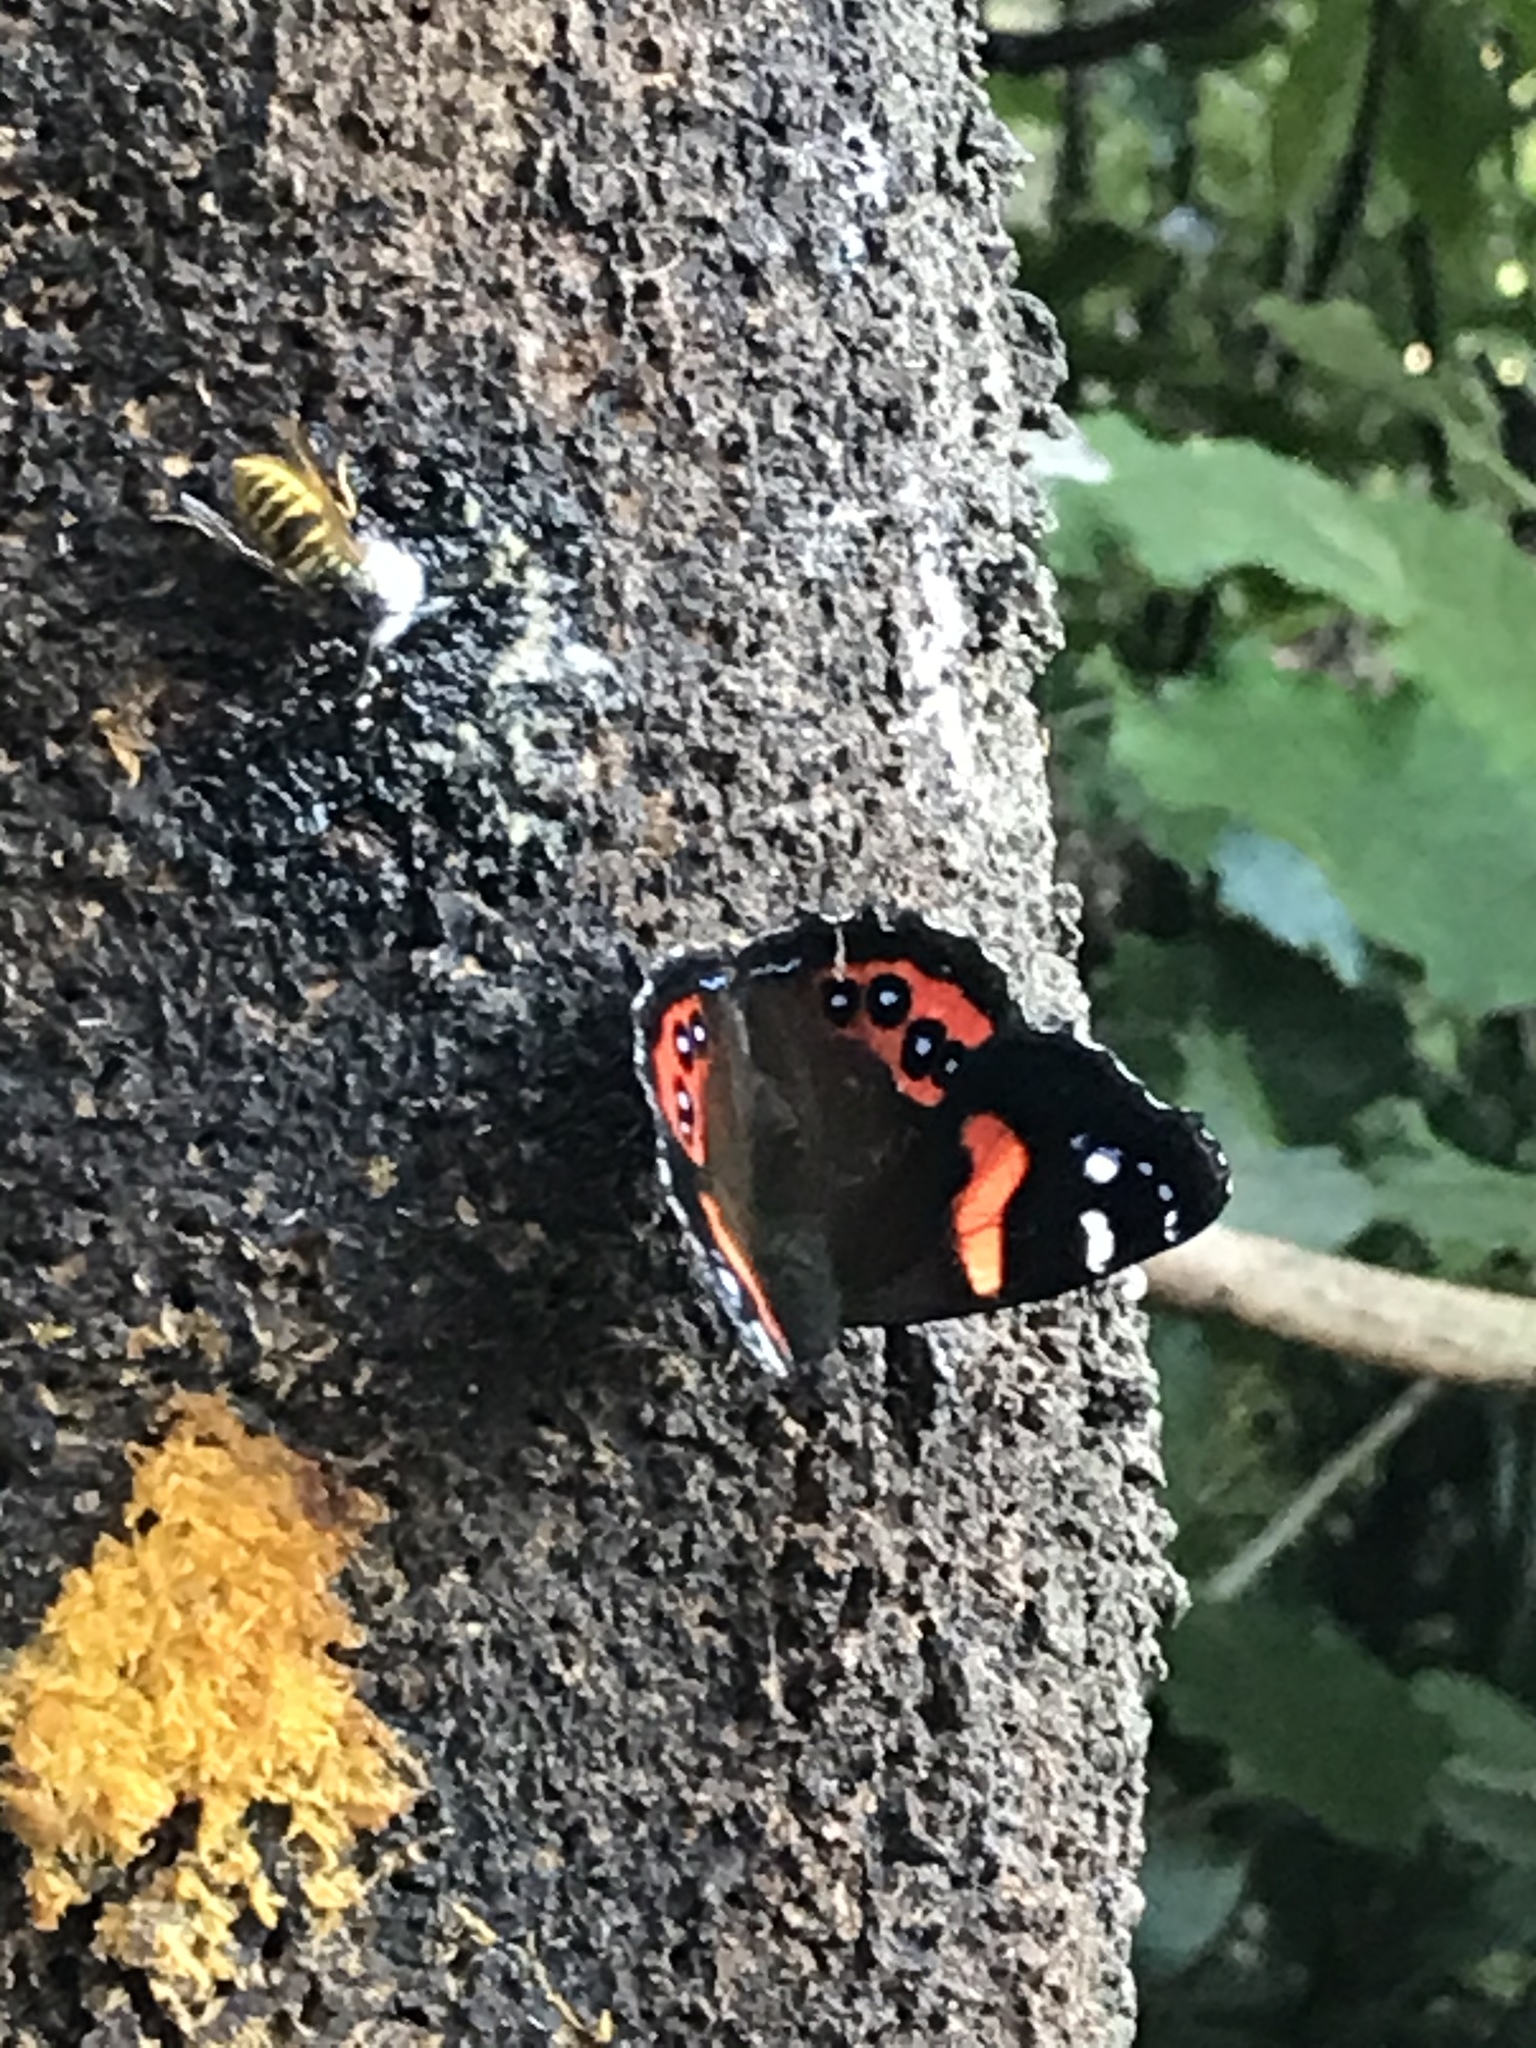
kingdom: Animalia
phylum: Arthropoda
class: Insecta
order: Lepidoptera
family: Nymphalidae
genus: Vanessa
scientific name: Vanessa gonerilla
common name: New zealand red admiral
